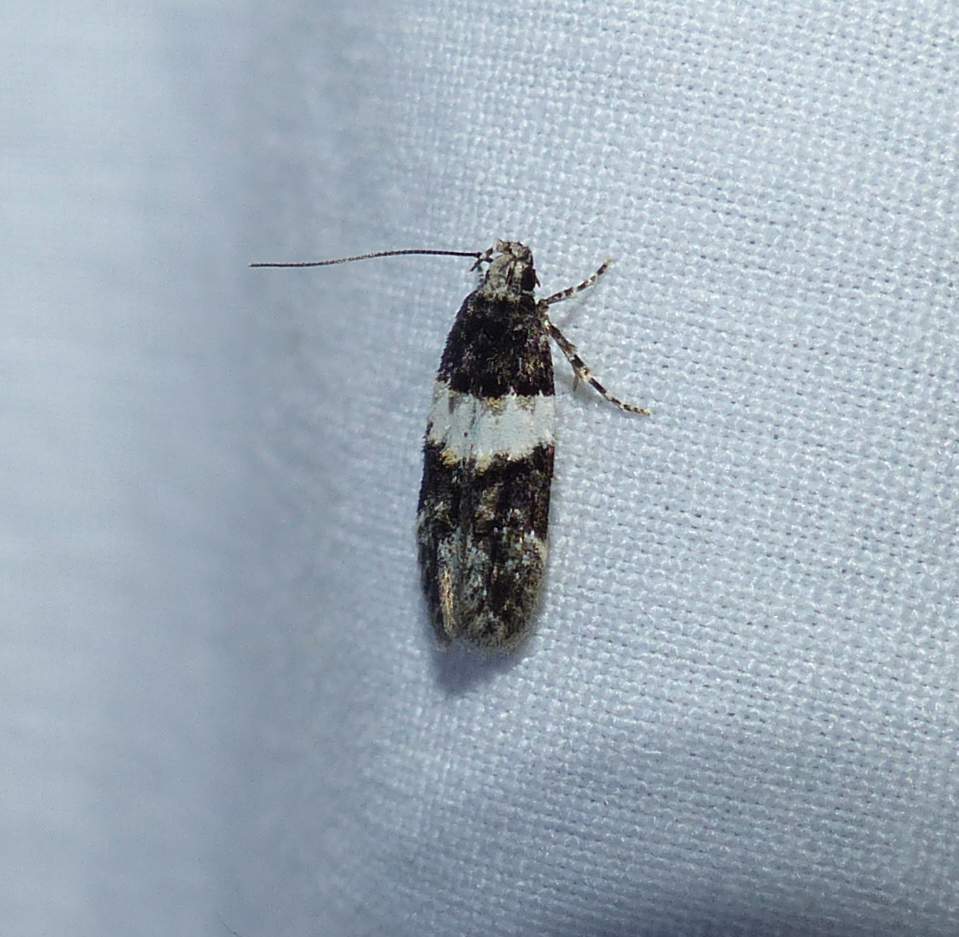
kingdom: Animalia
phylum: Arthropoda
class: Insecta
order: Lepidoptera
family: Gelechiidae
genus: Pubitelphusa
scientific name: Pubitelphusa latifasciella
